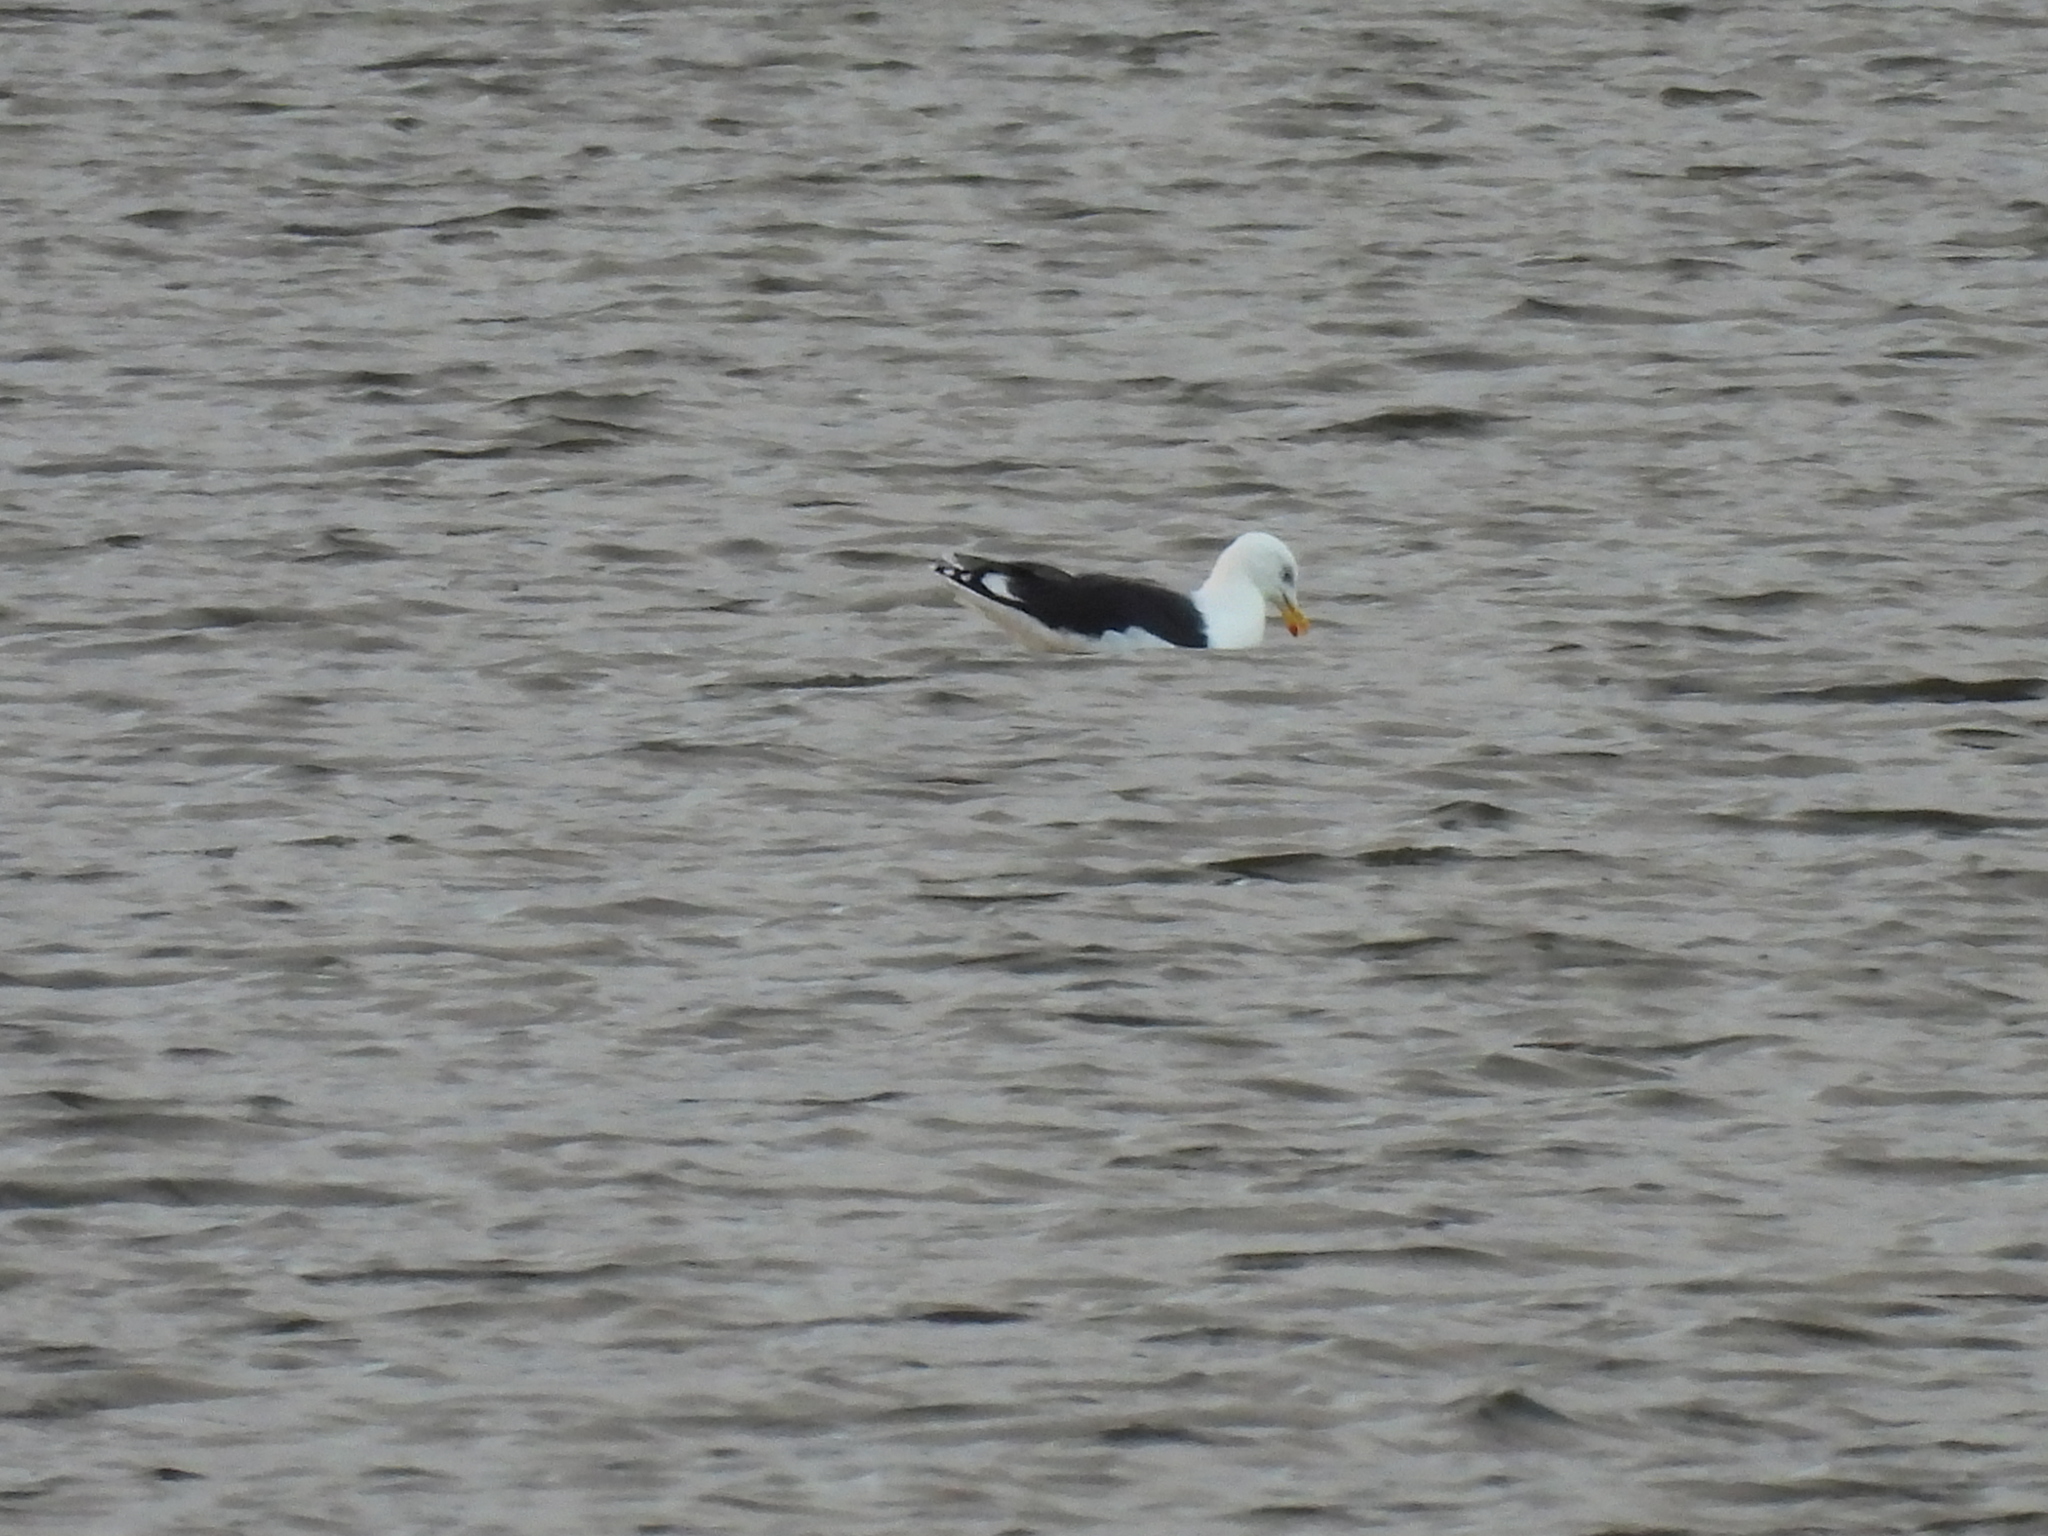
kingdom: Animalia
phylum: Chordata
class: Aves
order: Charadriiformes
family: Laridae
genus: Larus
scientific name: Larus marinus
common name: Great black-backed gull
